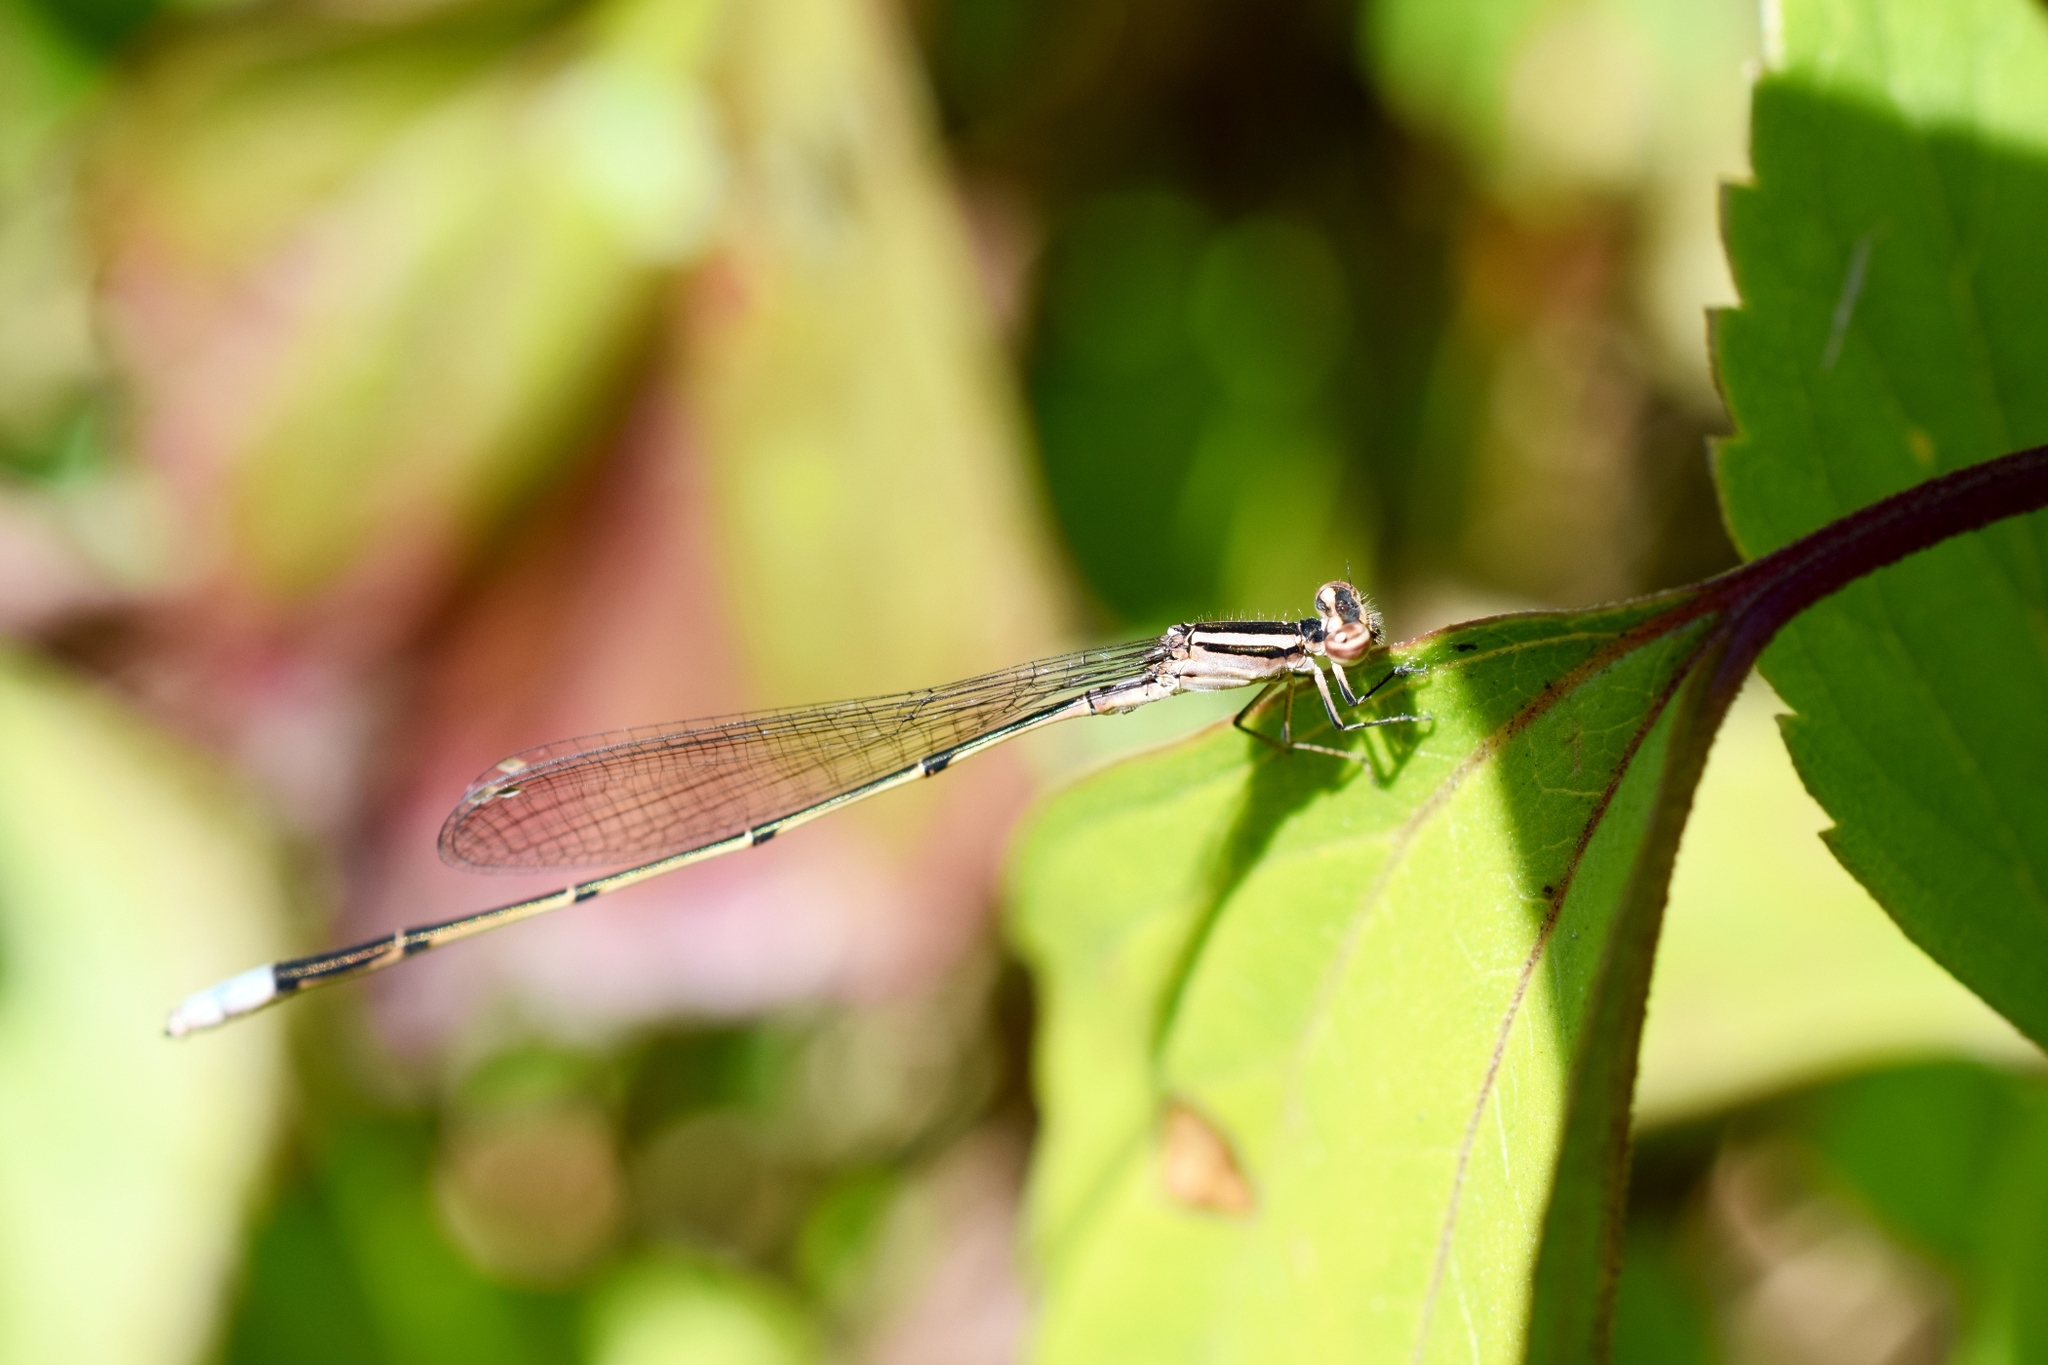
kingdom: Animalia
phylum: Arthropoda
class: Insecta
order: Odonata
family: Coenagrionidae
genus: Aciagrion
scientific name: Aciagrion approximans
